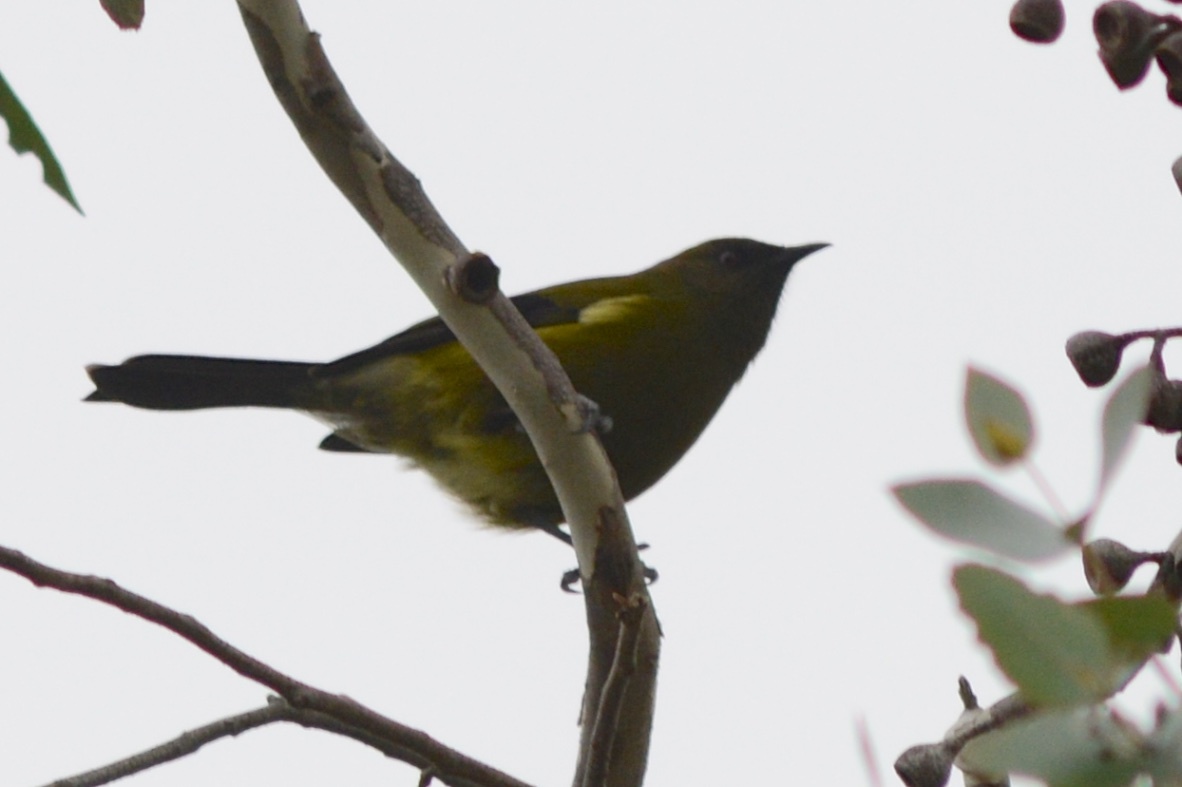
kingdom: Animalia
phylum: Chordata
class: Aves
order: Passeriformes
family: Meliphagidae
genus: Anthornis
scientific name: Anthornis melanura
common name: New zealand bellbird
